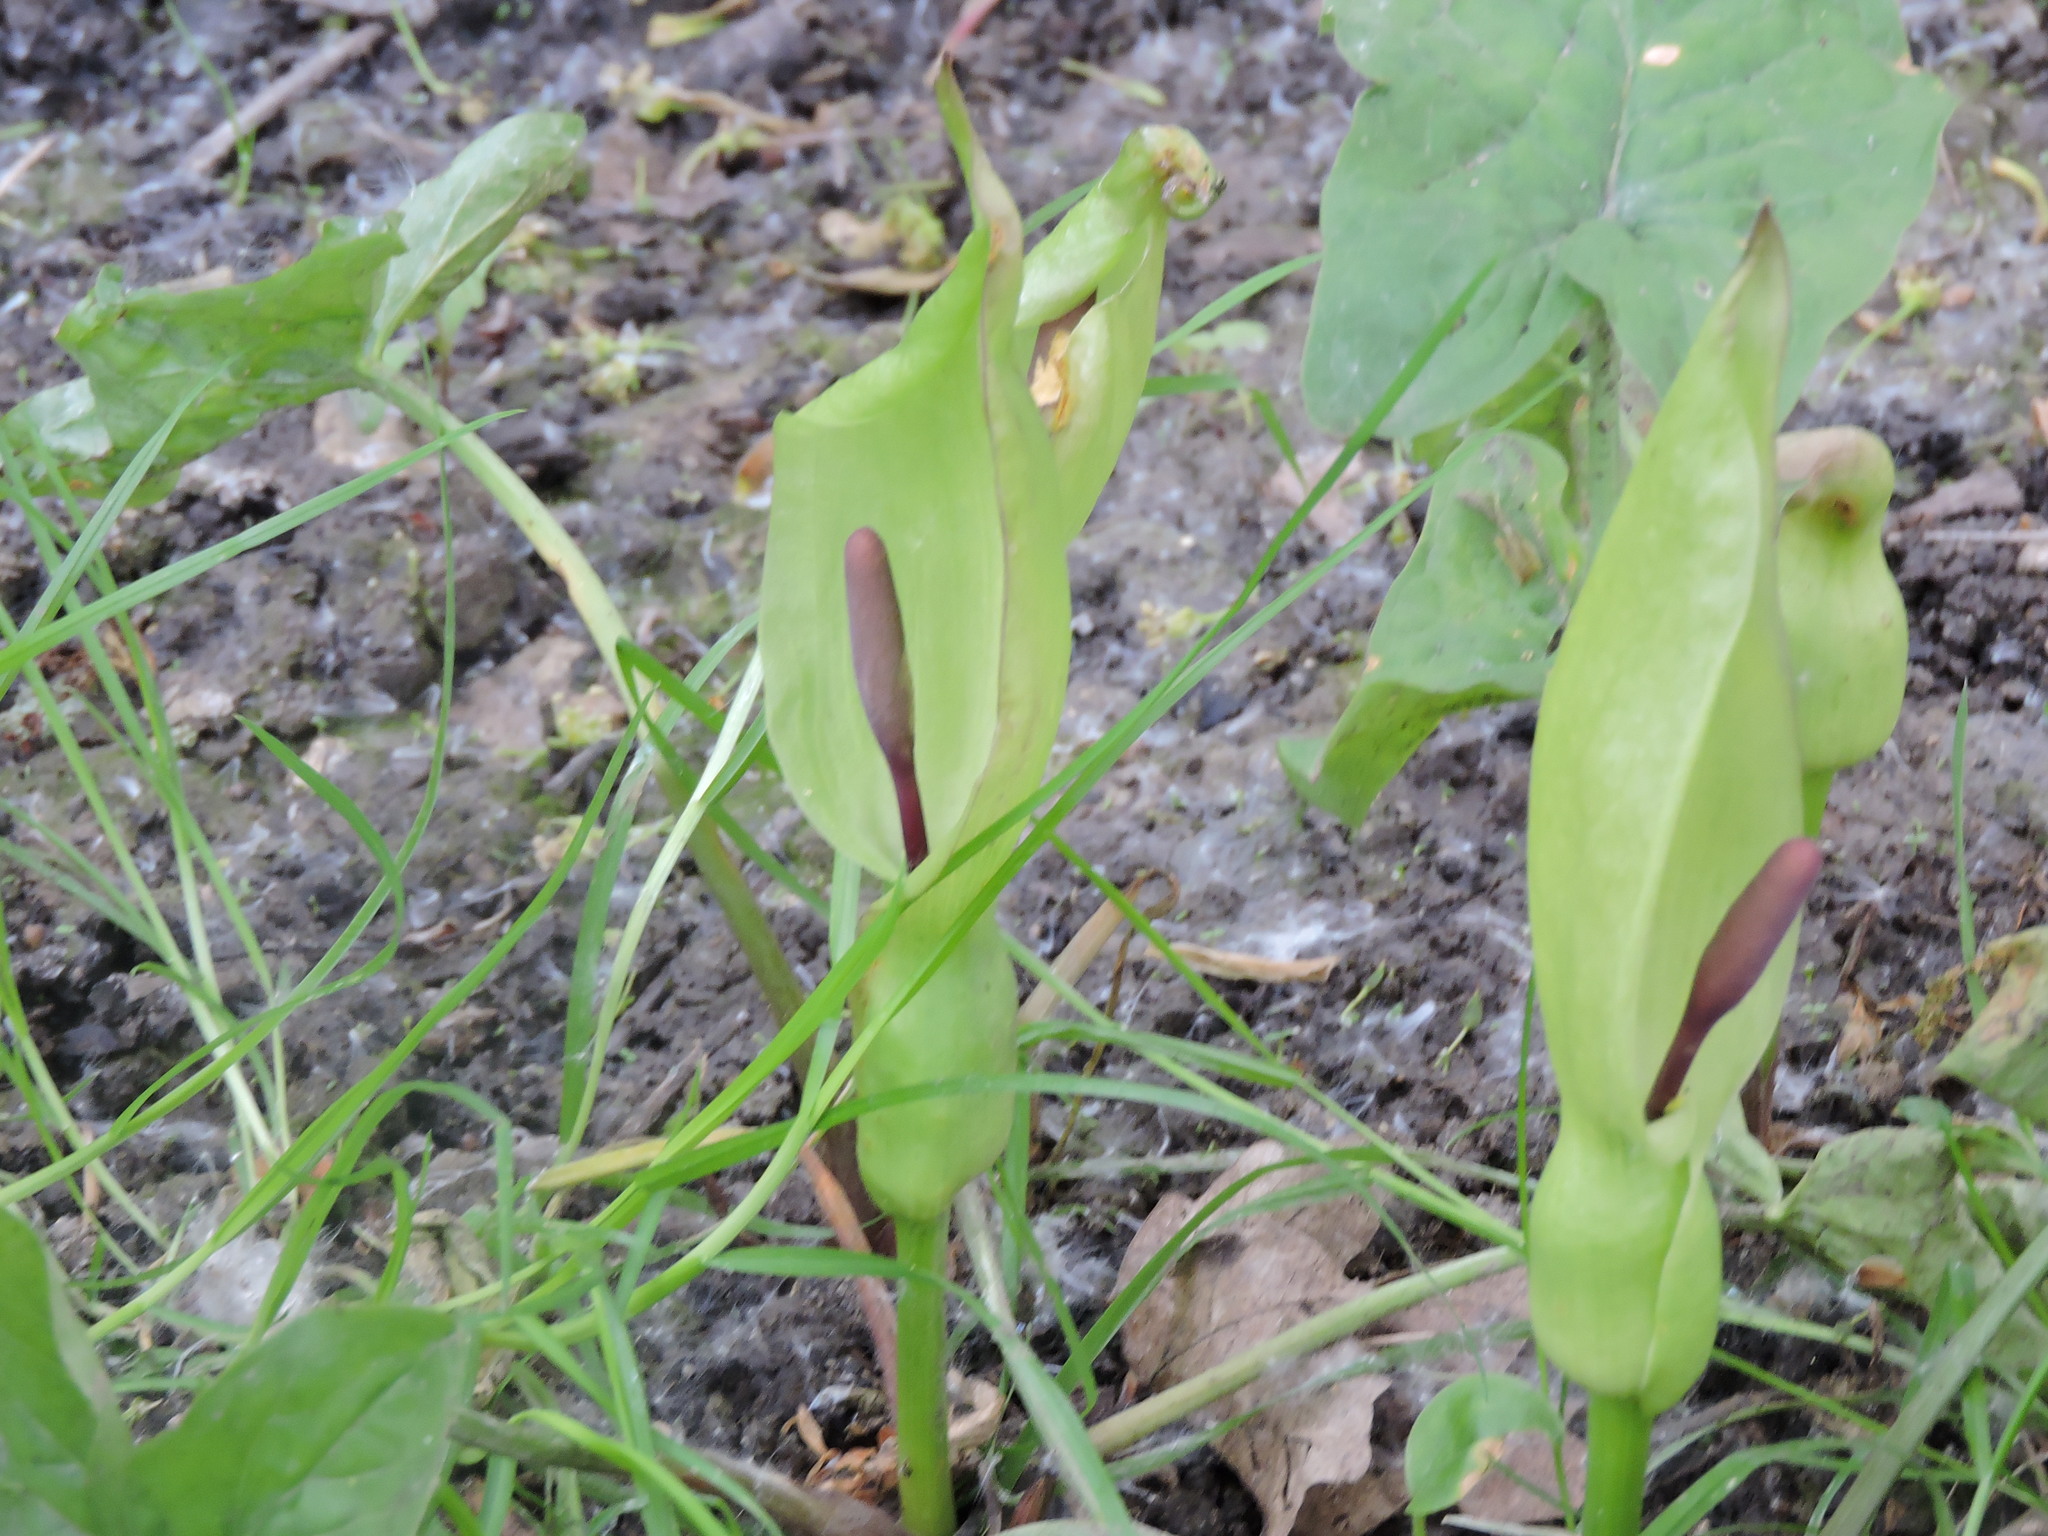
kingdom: Plantae
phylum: Tracheophyta
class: Liliopsida
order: Alismatales
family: Araceae
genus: Arum
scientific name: Arum maculatum
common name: Lords-and-ladies
